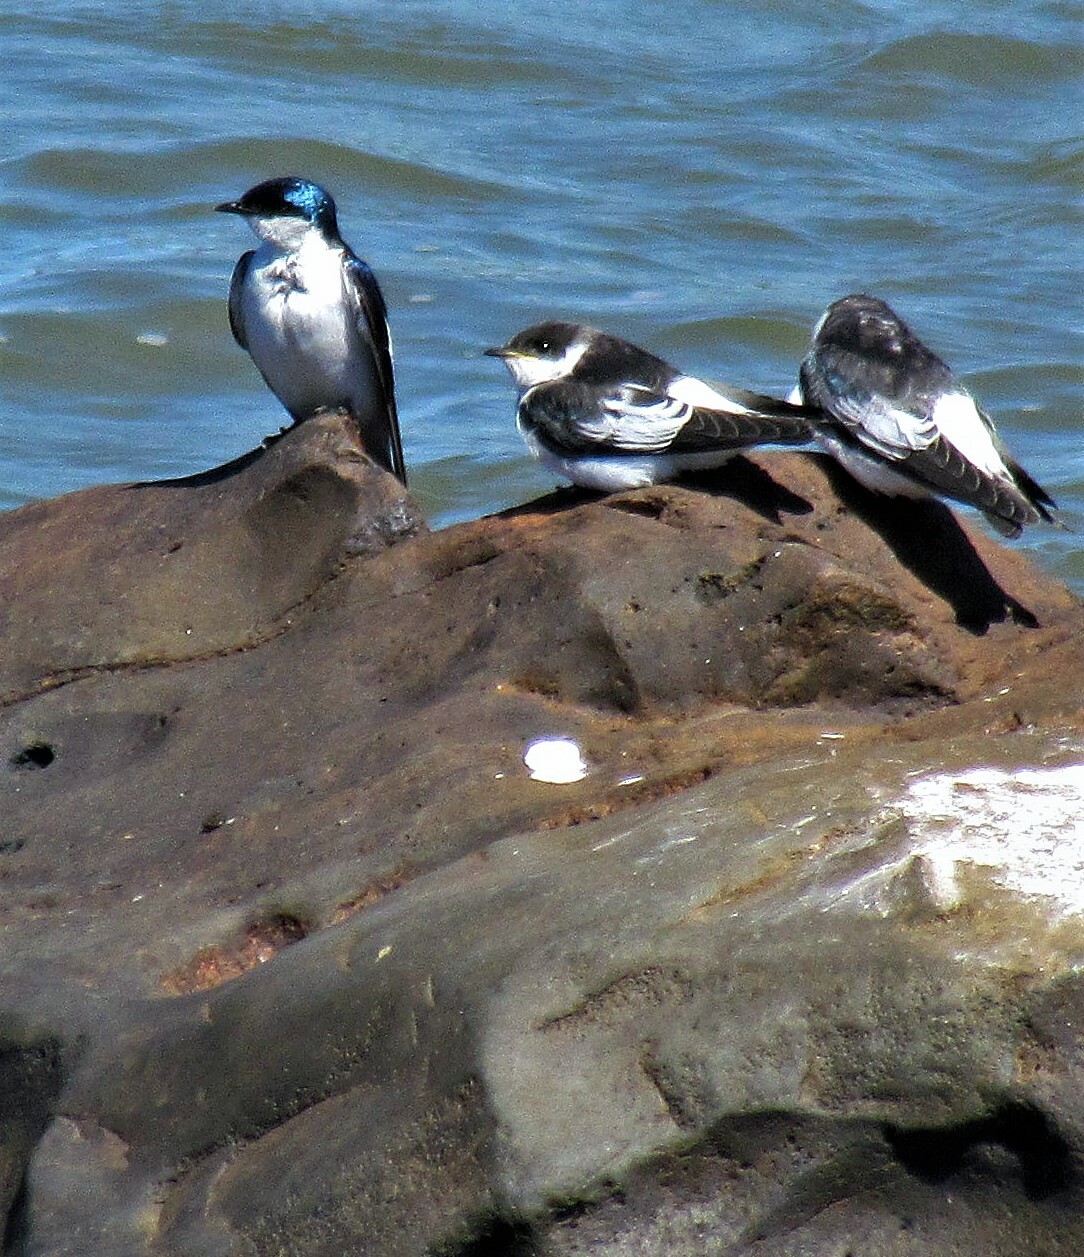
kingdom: Animalia
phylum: Chordata
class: Aves
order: Passeriformes
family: Hirundinidae
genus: Tachycineta
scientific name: Tachycineta albiventer
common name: White-winged swallow
